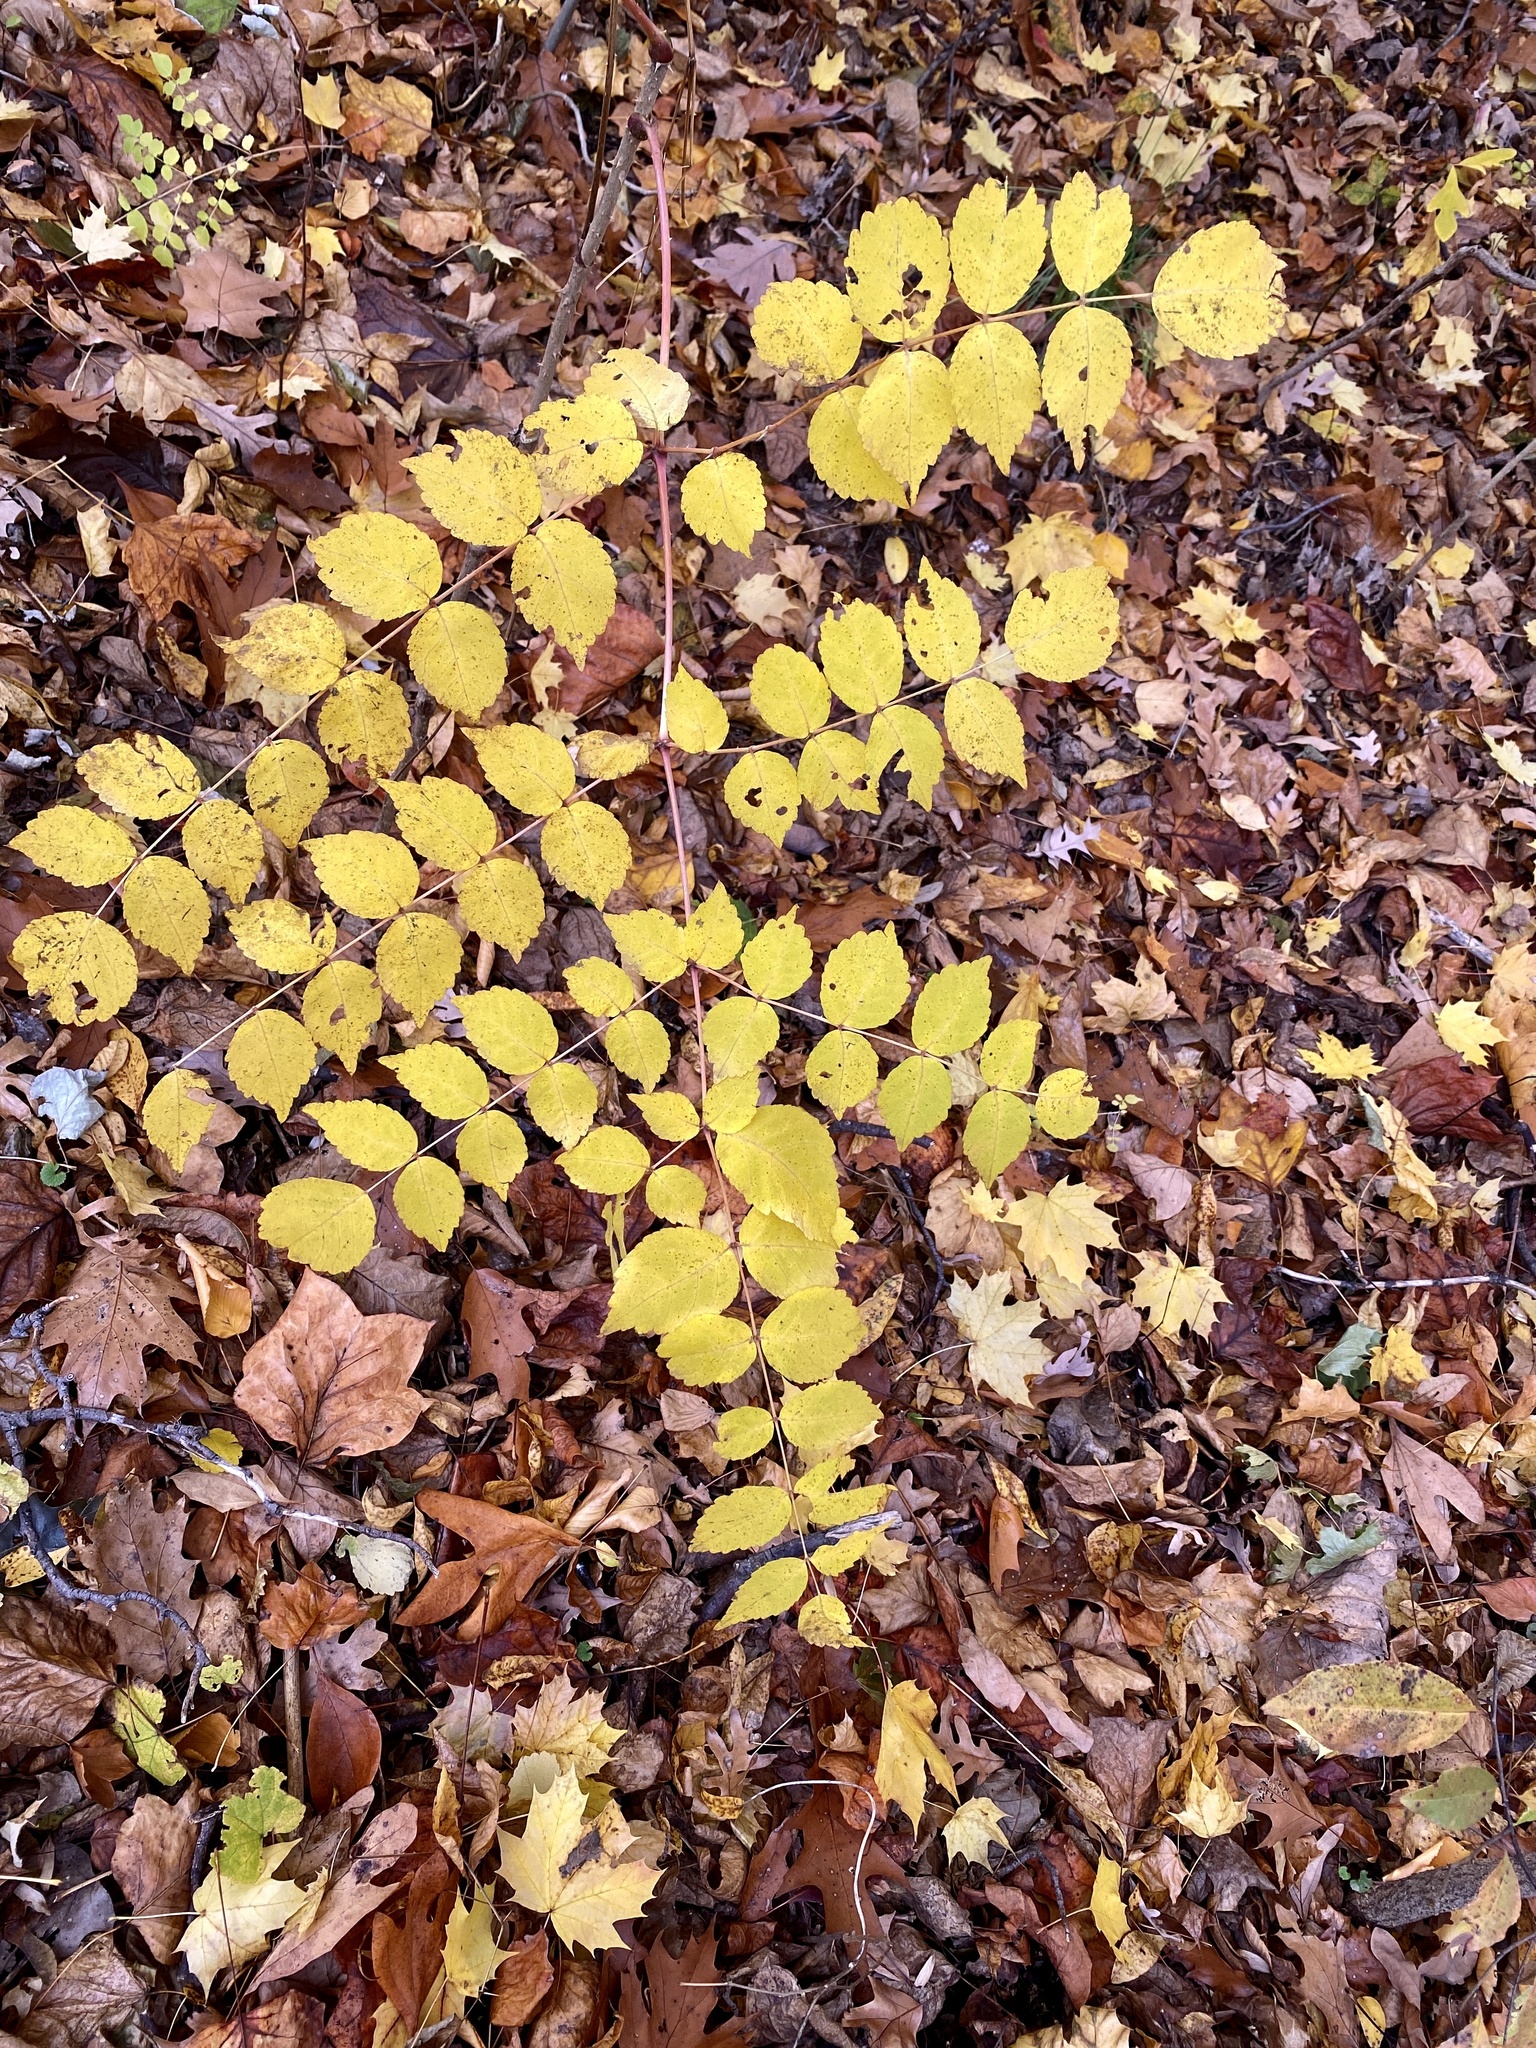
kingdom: Plantae
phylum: Tracheophyta
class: Magnoliopsida
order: Apiales
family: Araliaceae
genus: Aralia
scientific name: Aralia elata
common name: Japanese angelica-tree
